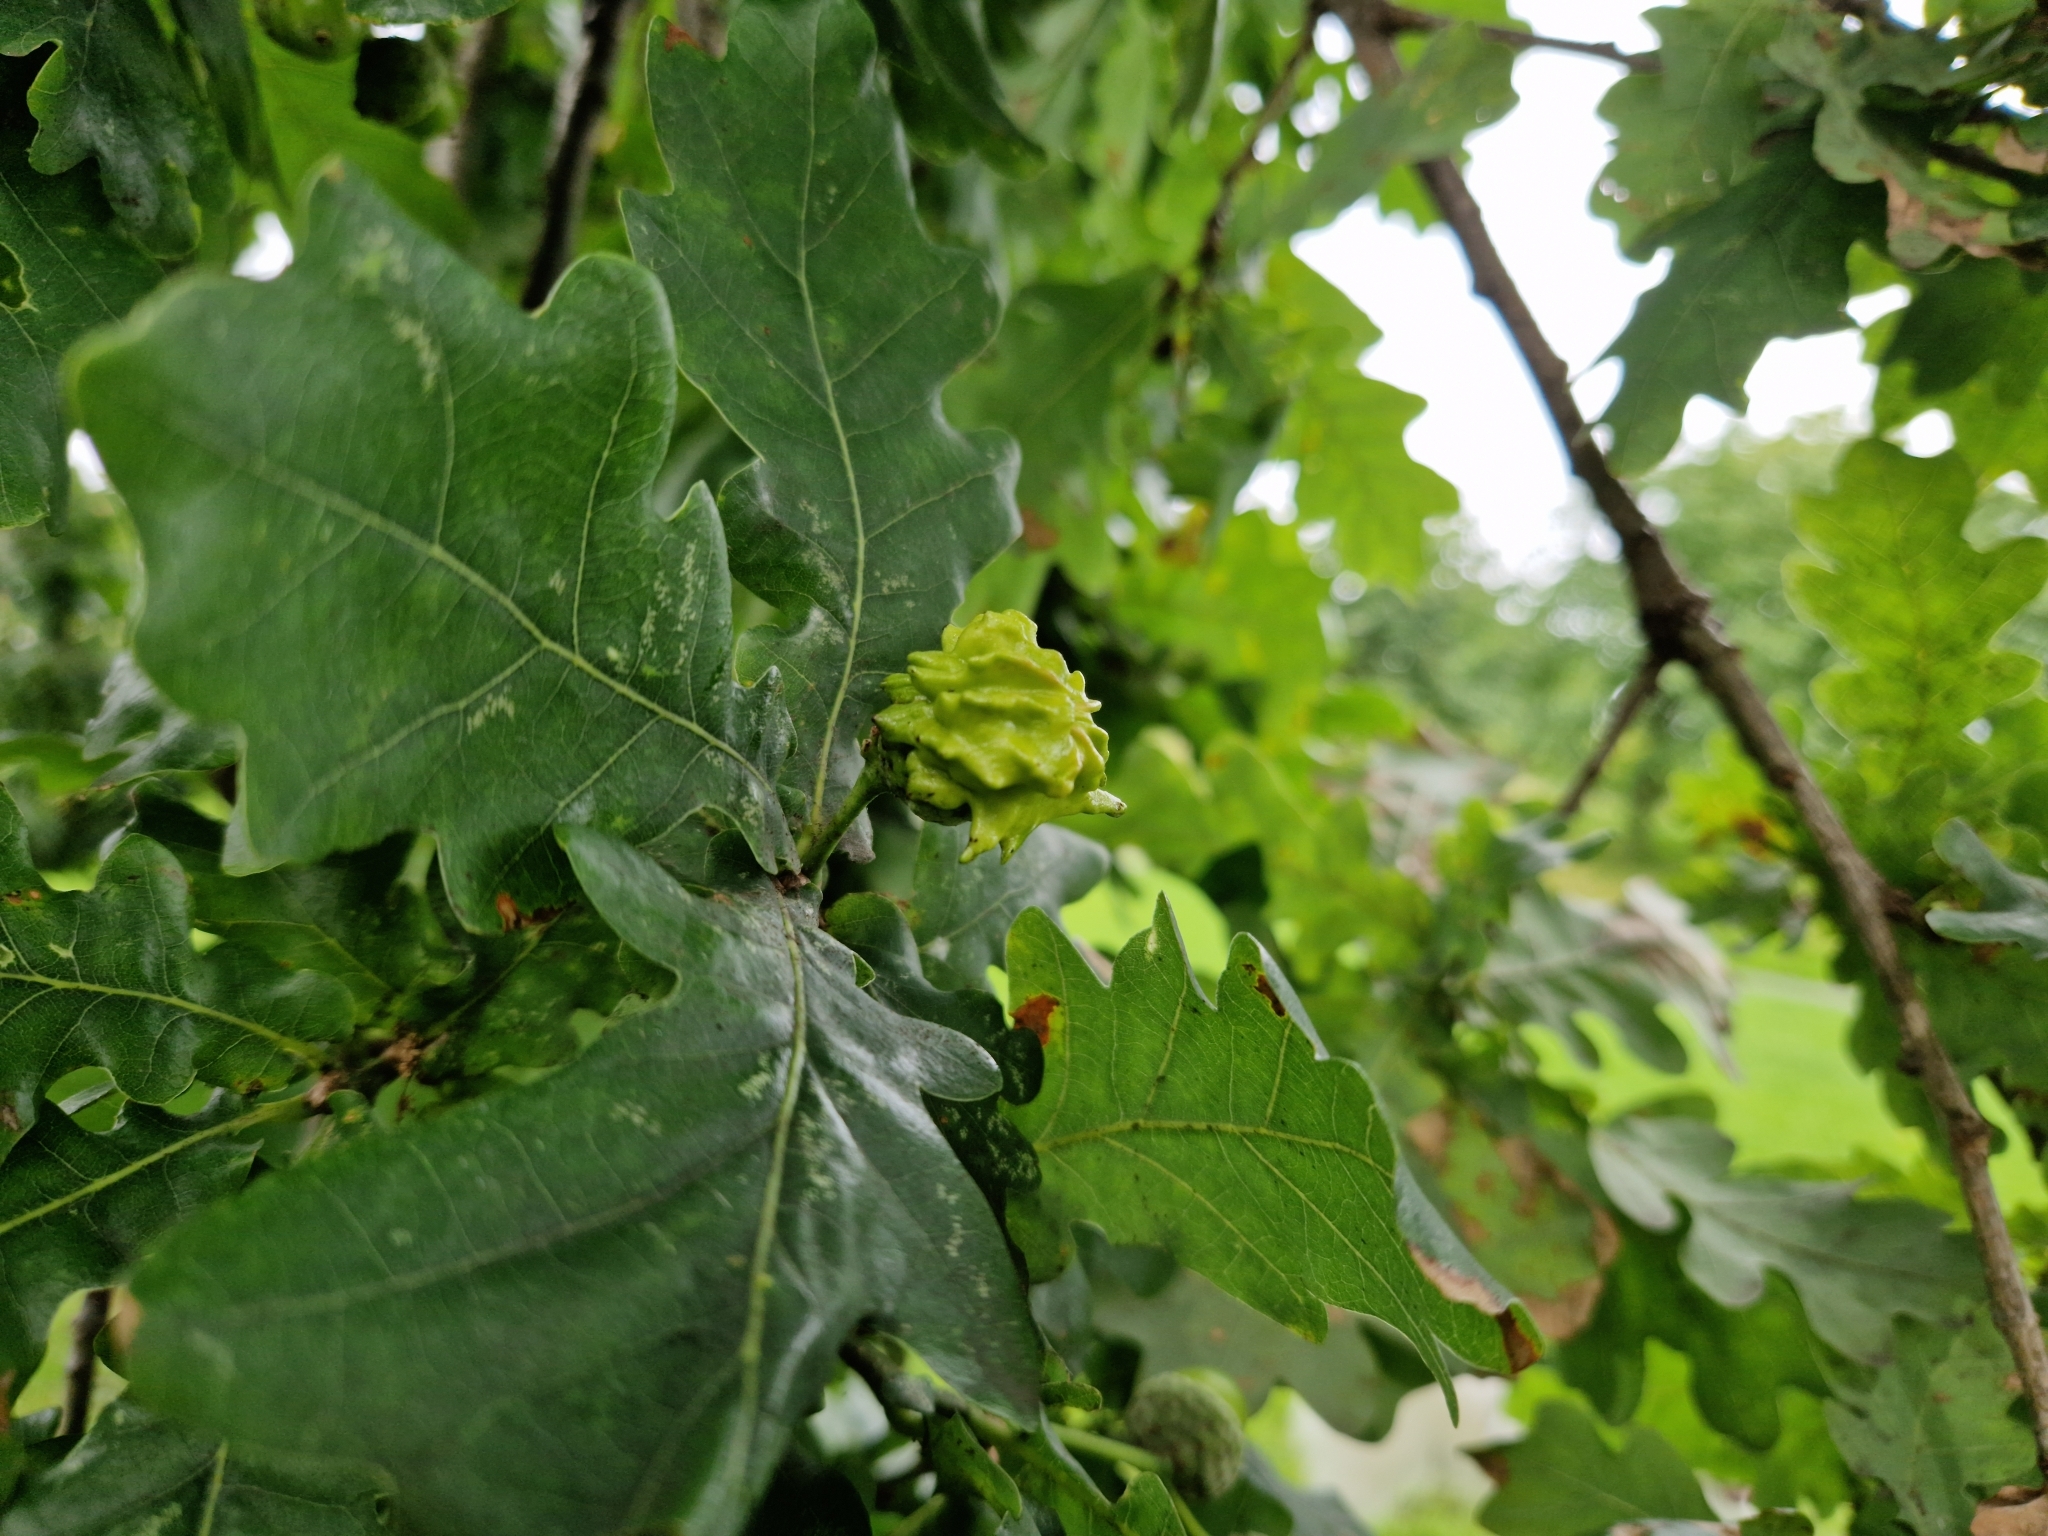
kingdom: Animalia
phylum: Arthropoda
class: Insecta
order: Hymenoptera
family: Cynipidae
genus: Andricus
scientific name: Andricus quercuscalicis
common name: Knopper gall
